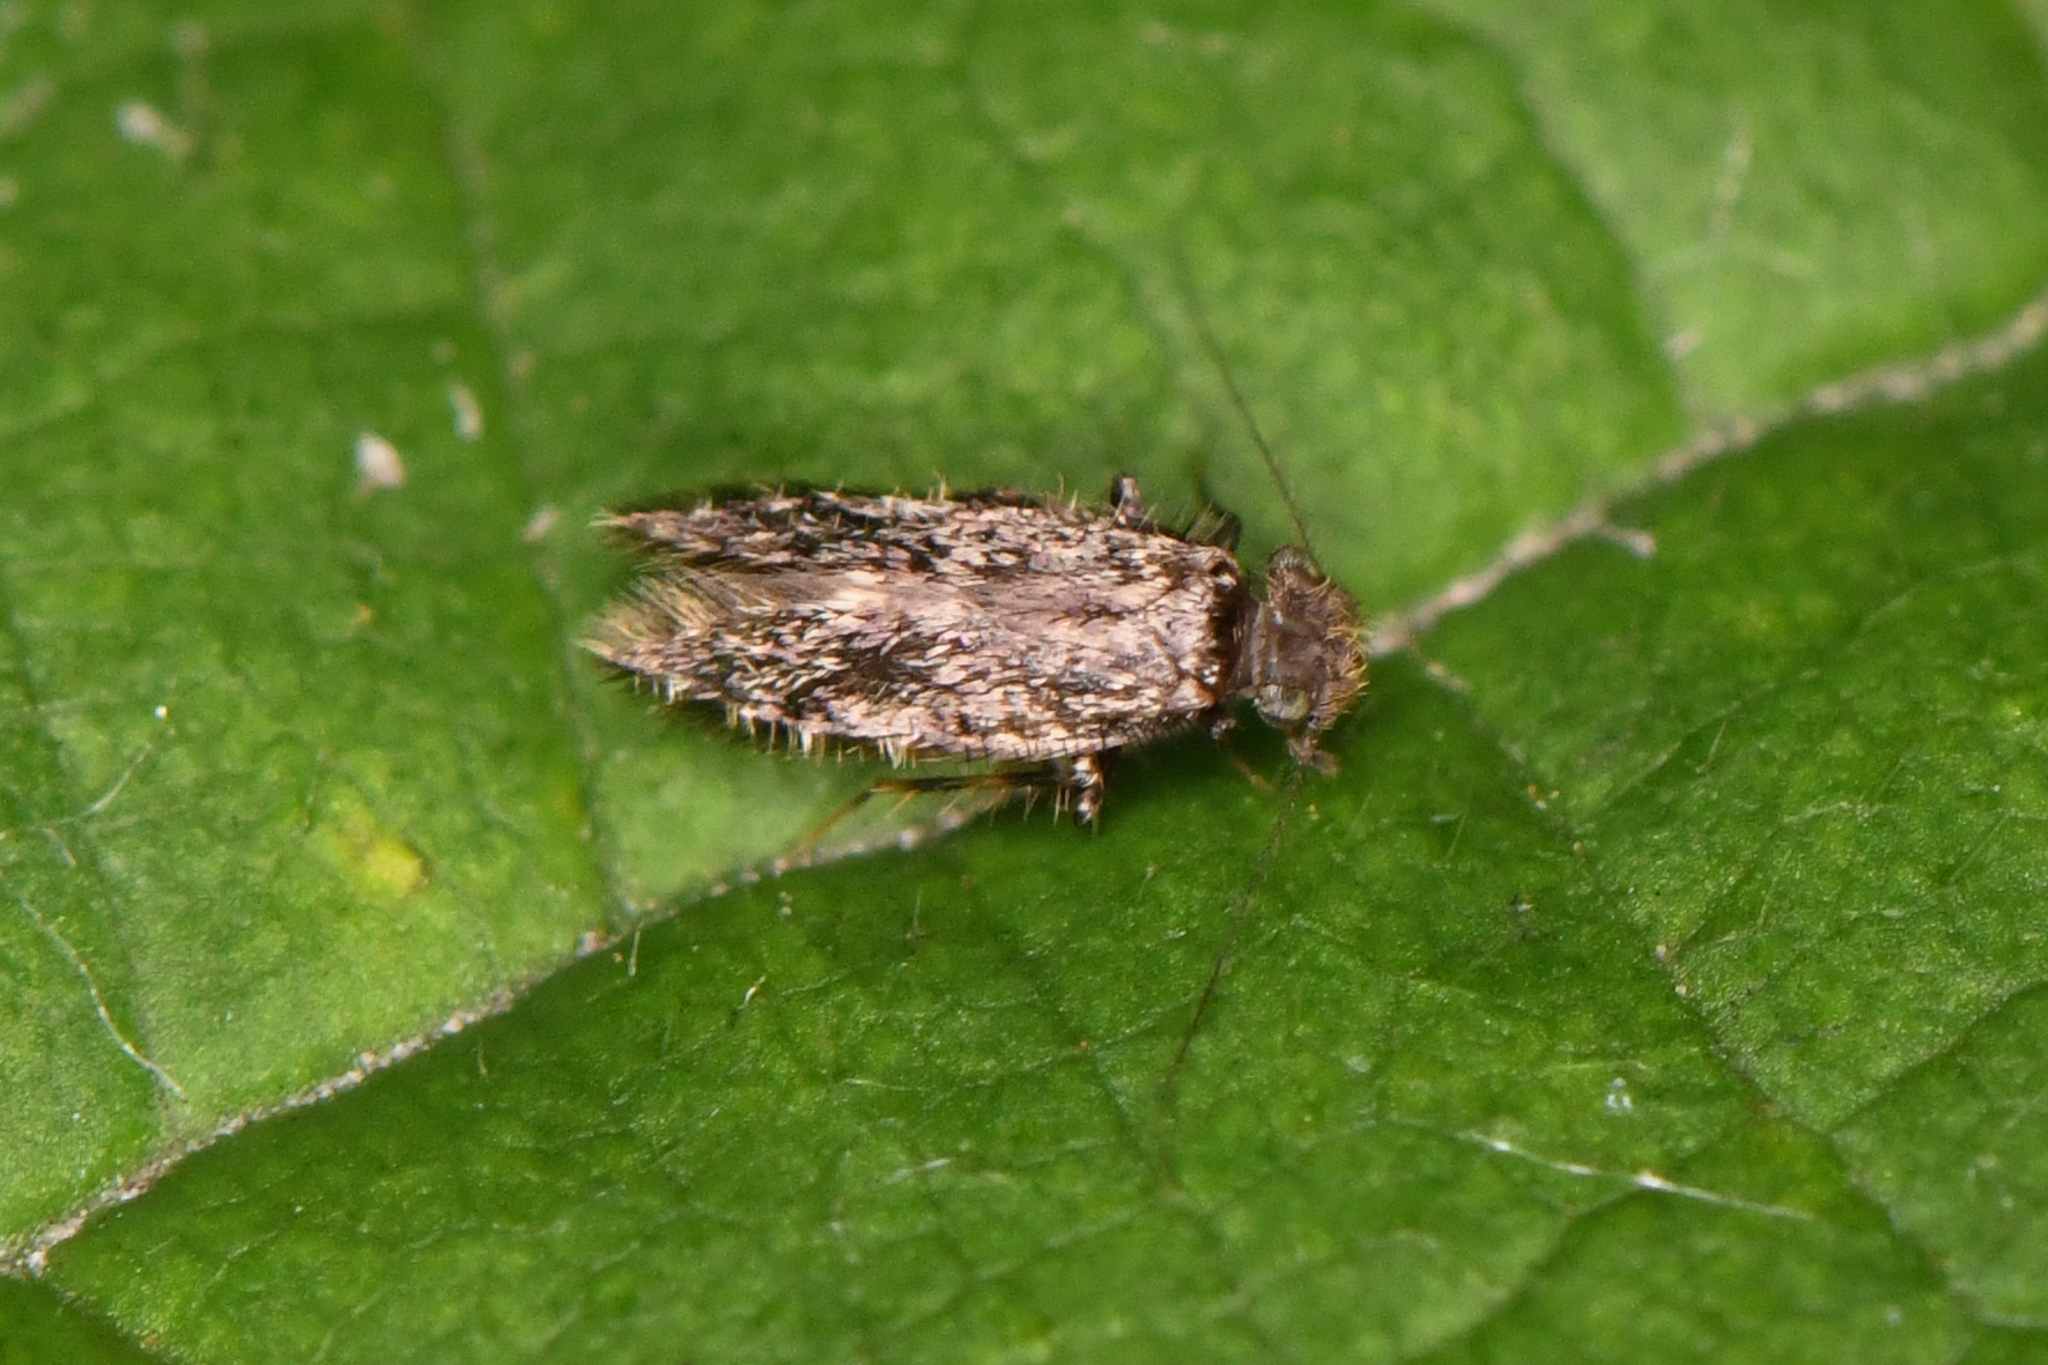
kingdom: Animalia
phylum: Arthropoda
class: Insecta
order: Psocodea
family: Lepidopsocidae
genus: Echmepteryx
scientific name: Echmepteryx hageni
